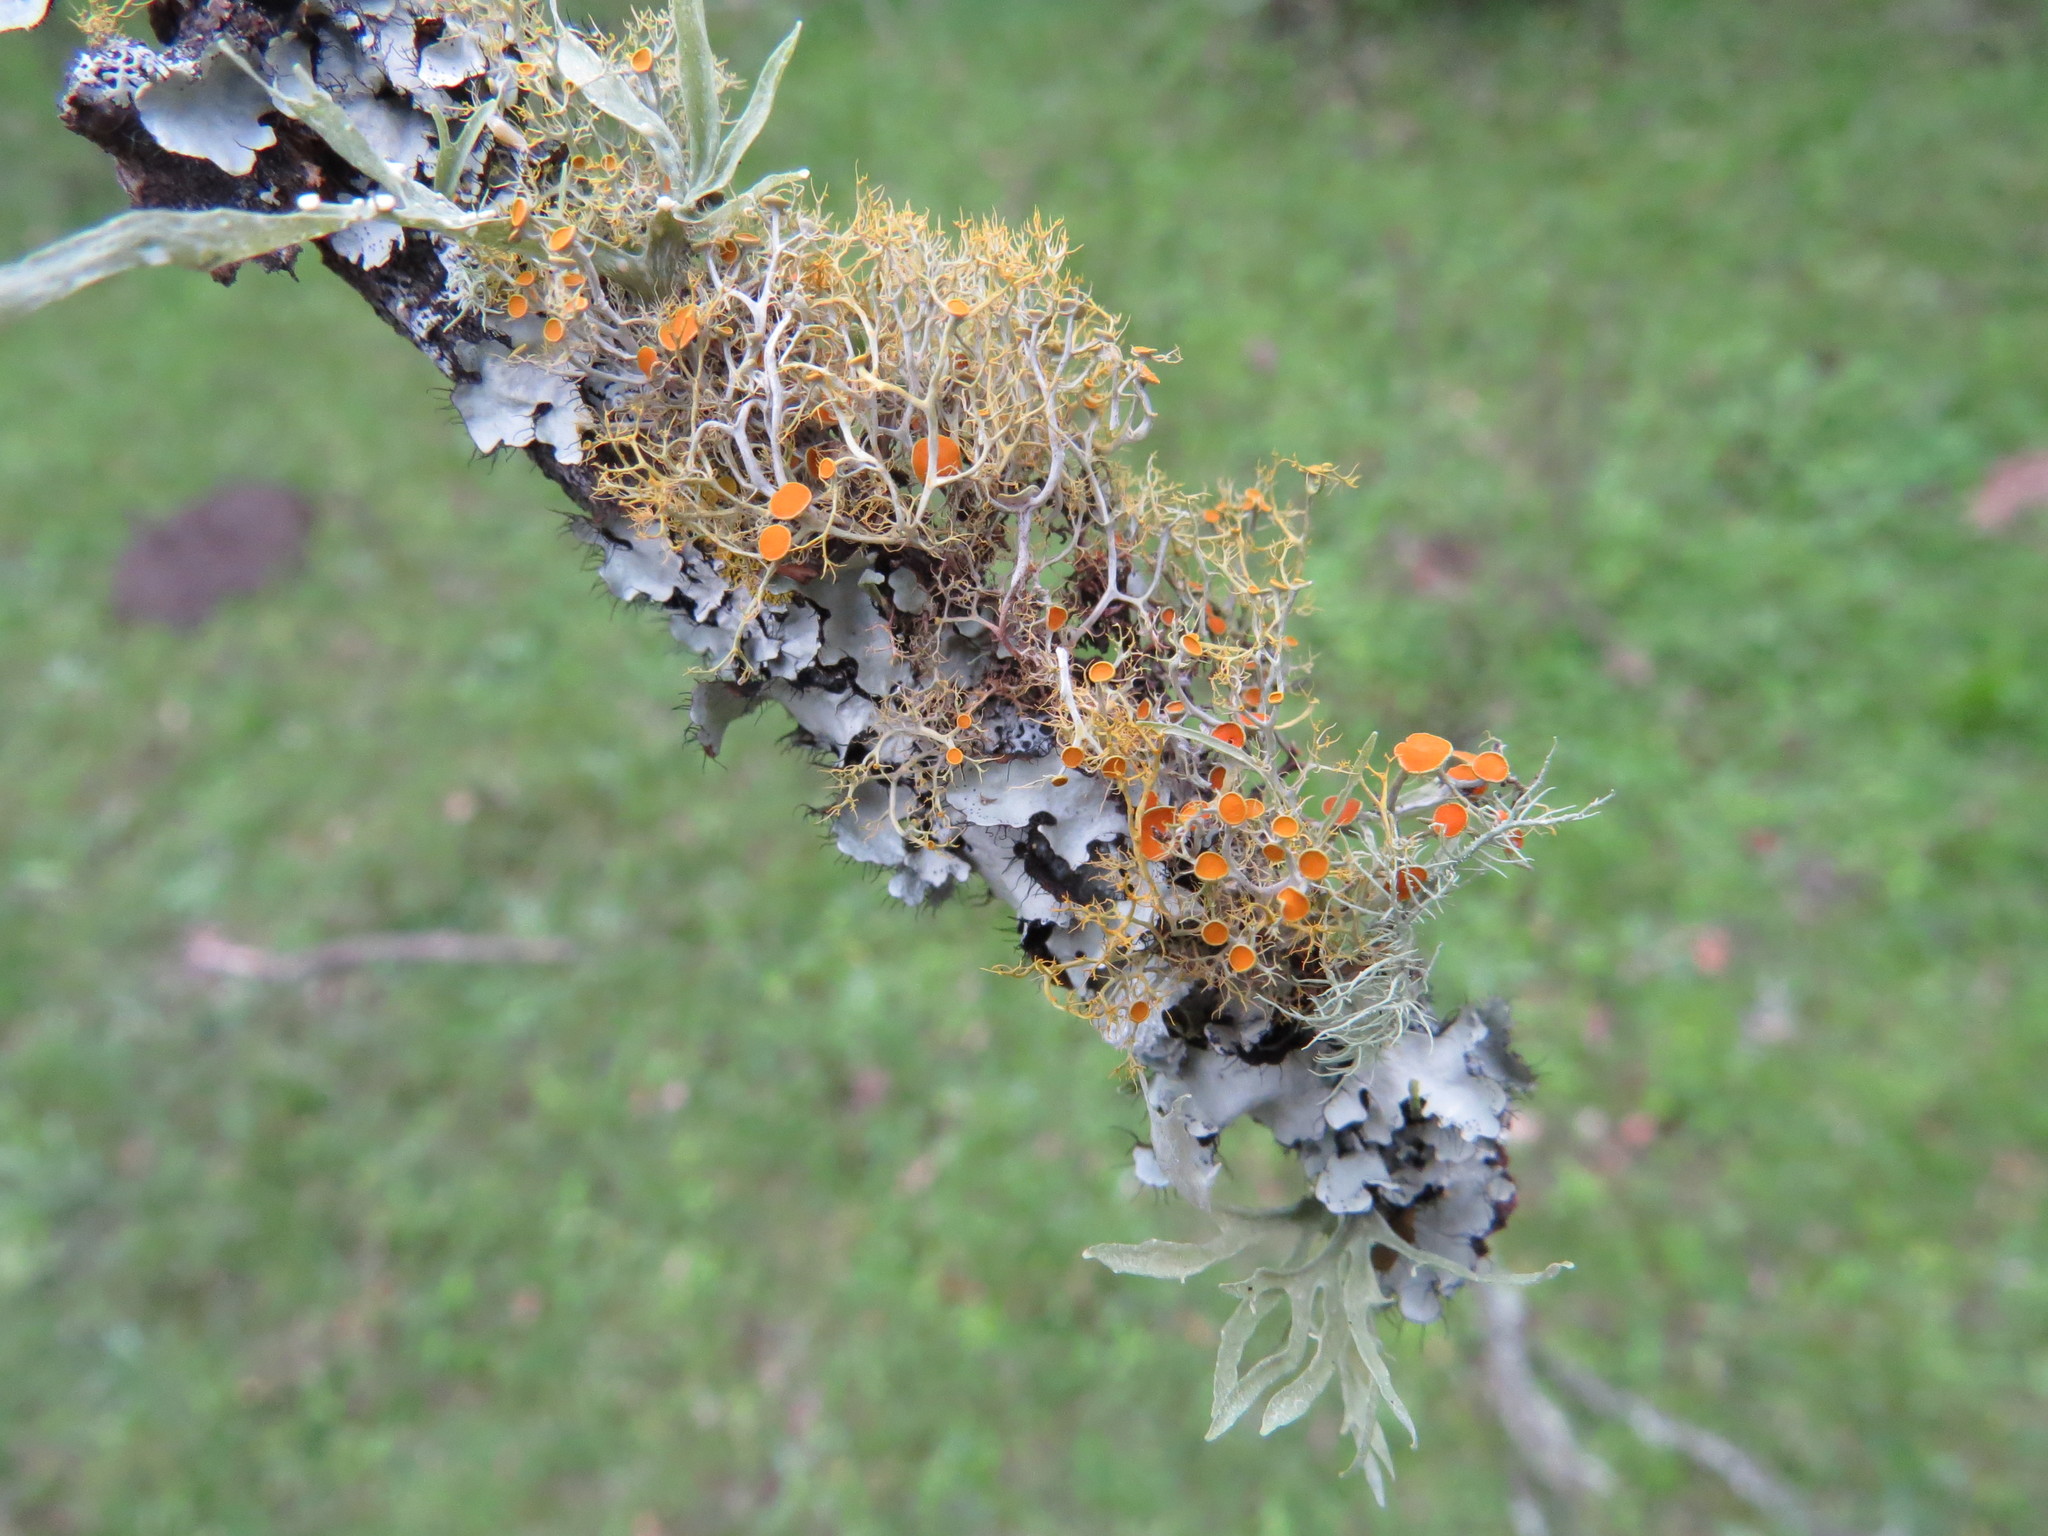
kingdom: Fungi
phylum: Ascomycota
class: Lecanoromycetes
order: Teloschistales
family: Teloschistaceae
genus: Teloschistes
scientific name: Teloschistes exilis
